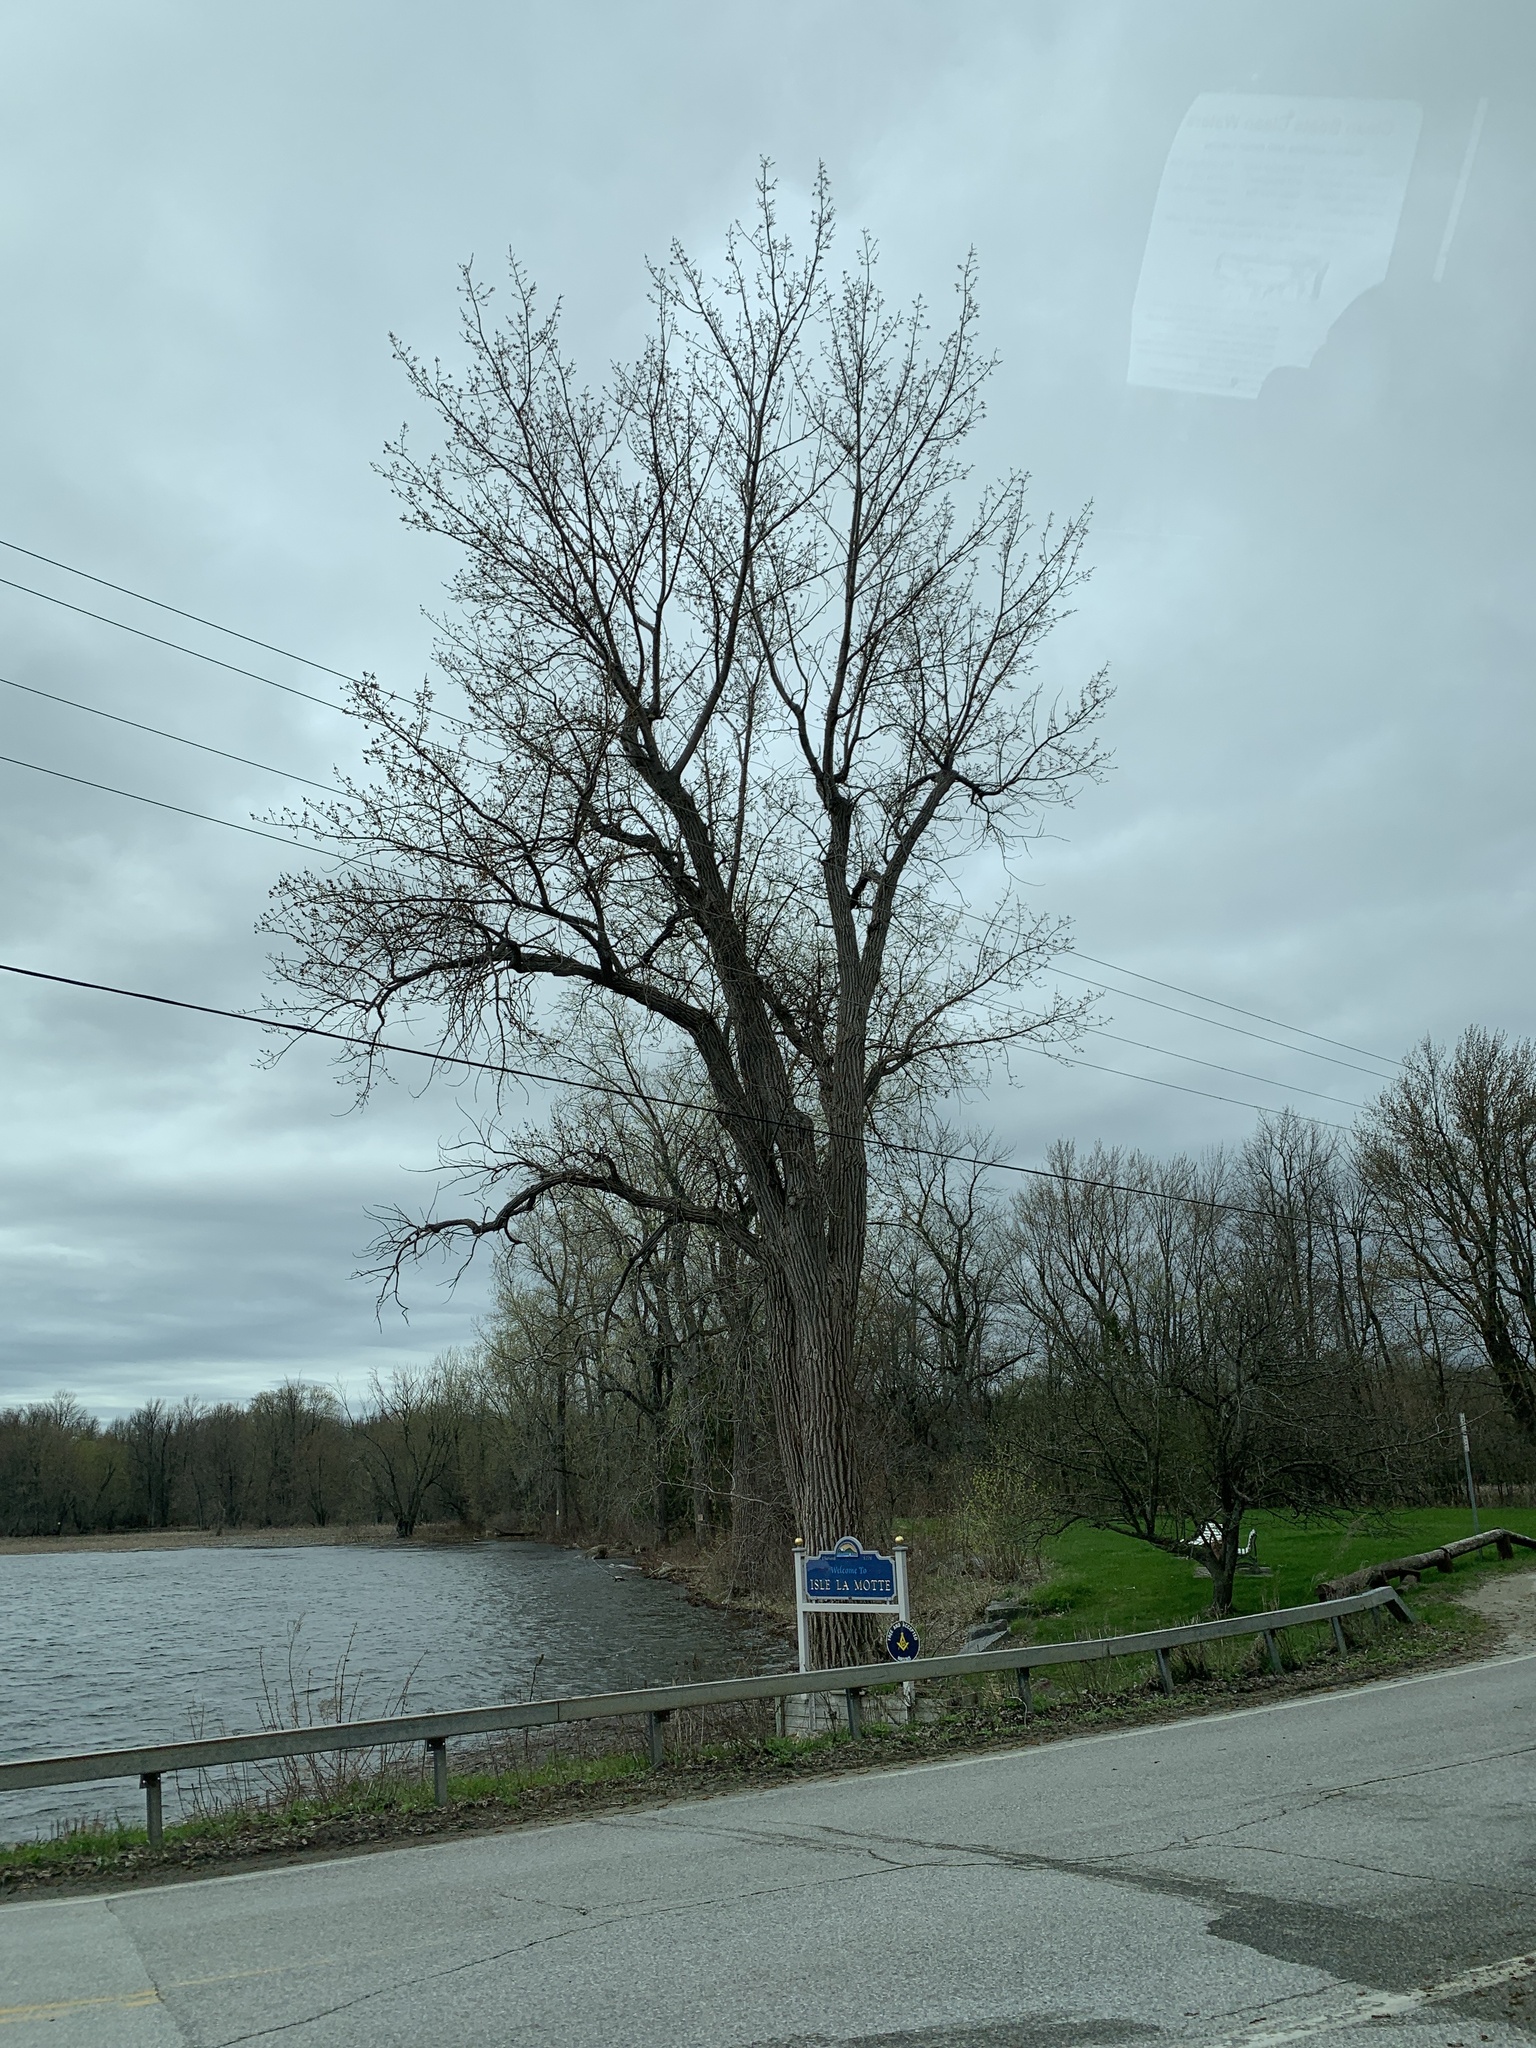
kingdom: Plantae
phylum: Tracheophyta
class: Magnoliopsida
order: Malpighiales
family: Salicaceae
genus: Populus
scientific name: Populus deltoides
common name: Eastern cottonwood
